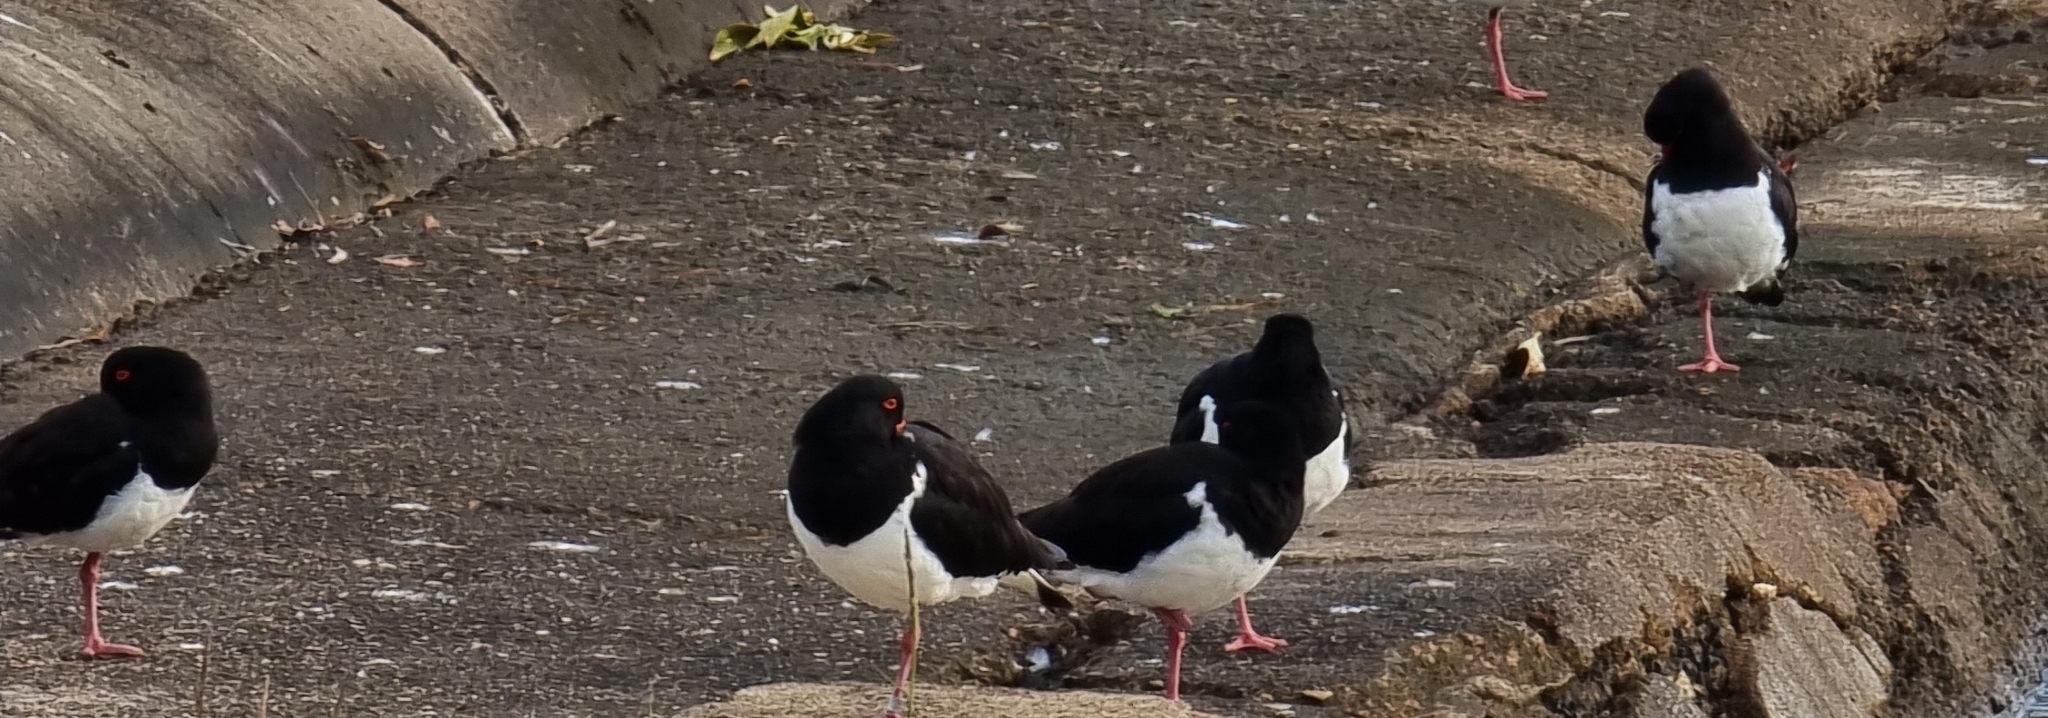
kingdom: Animalia
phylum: Chordata
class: Aves
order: Charadriiformes
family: Haematopodidae
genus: Haematopus
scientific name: Haematopus longirostris
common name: Pied oystercatcher
